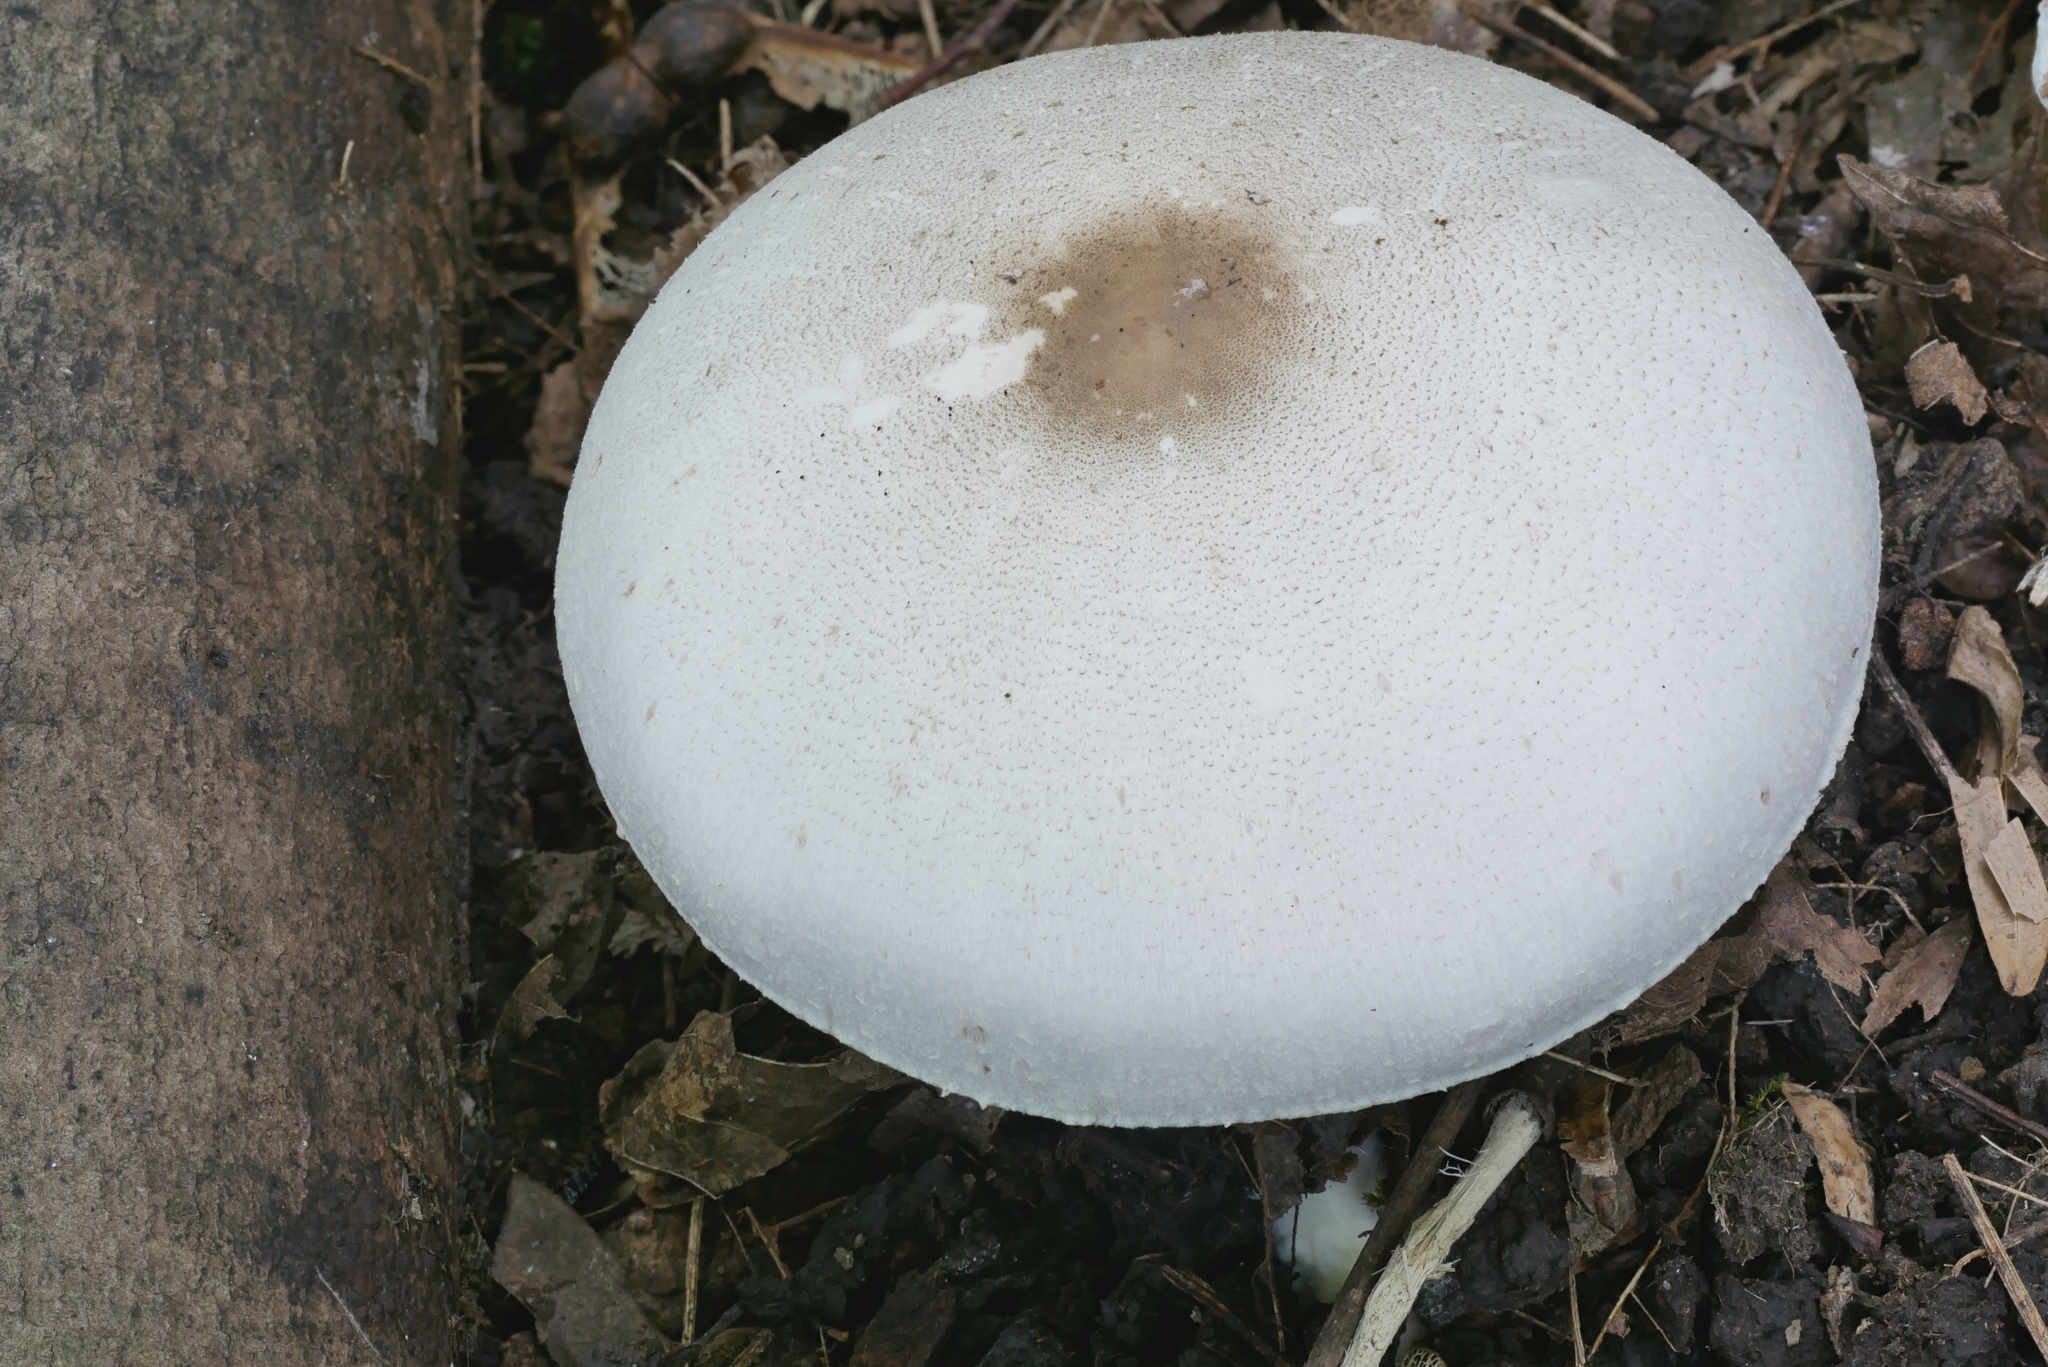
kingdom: Fungi
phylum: Basidiomycota
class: Agaricomycetes
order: Agaricales
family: Agaricaceae
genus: Agaricus
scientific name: Agaricus leptocaulis
